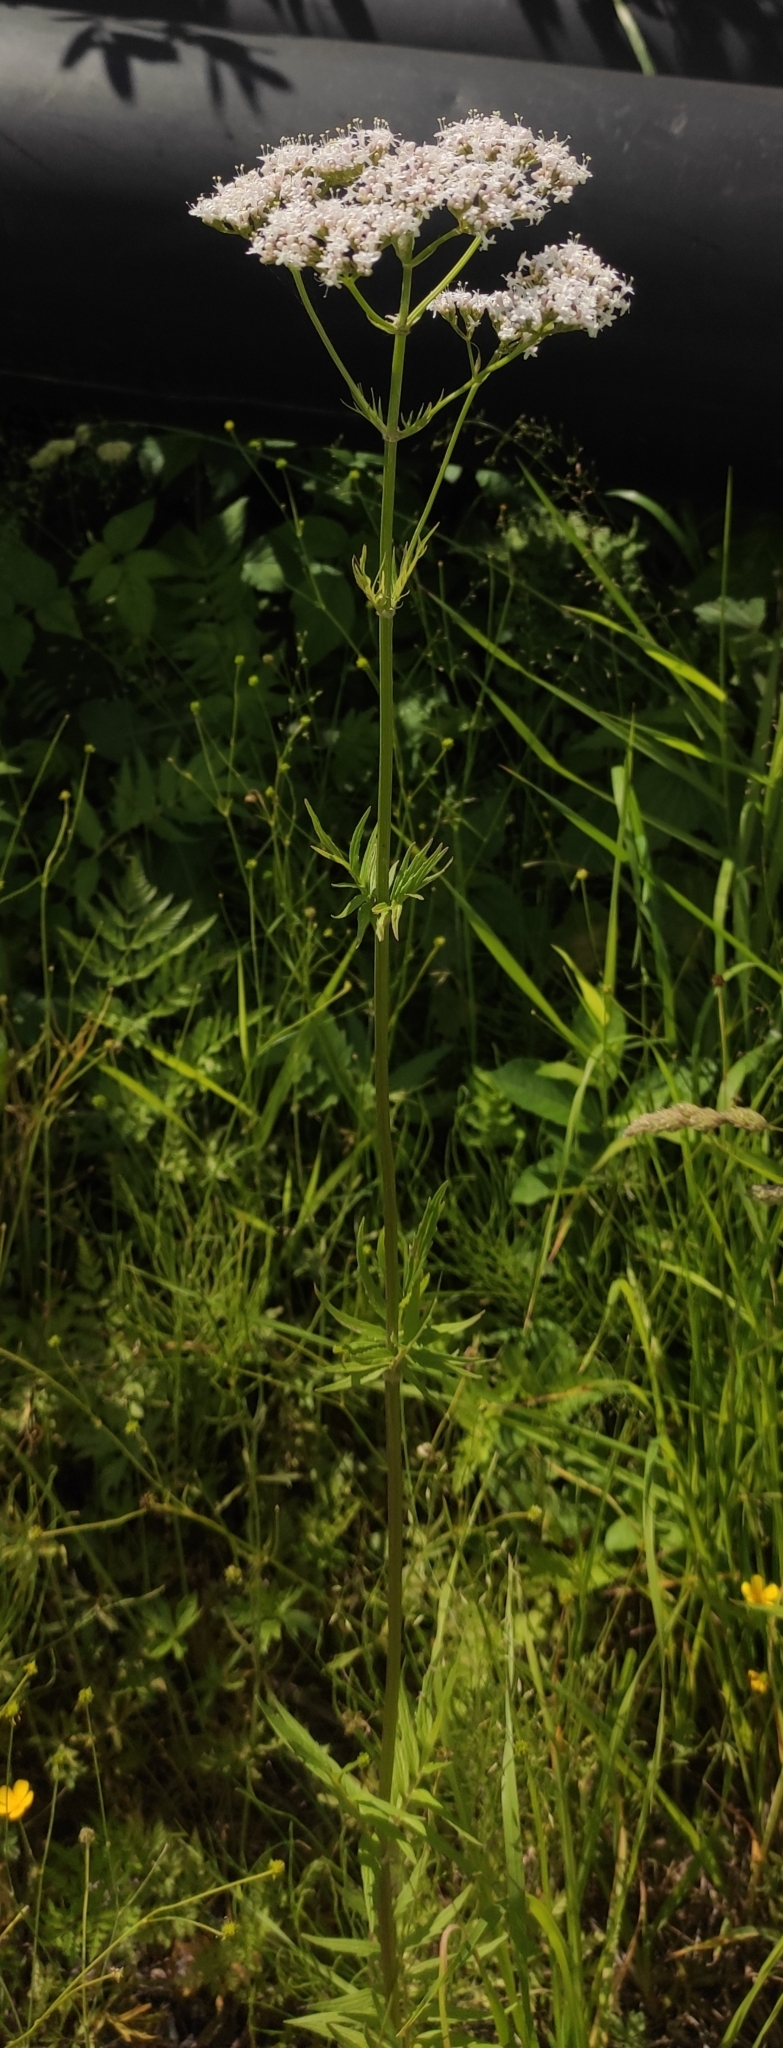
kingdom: Plantae
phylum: Tracheophyta
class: Magnoliopsida
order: Dipsacales
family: Caprifoliaceae
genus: Valeriana
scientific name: Valeriana officinalis
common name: Common valerian
